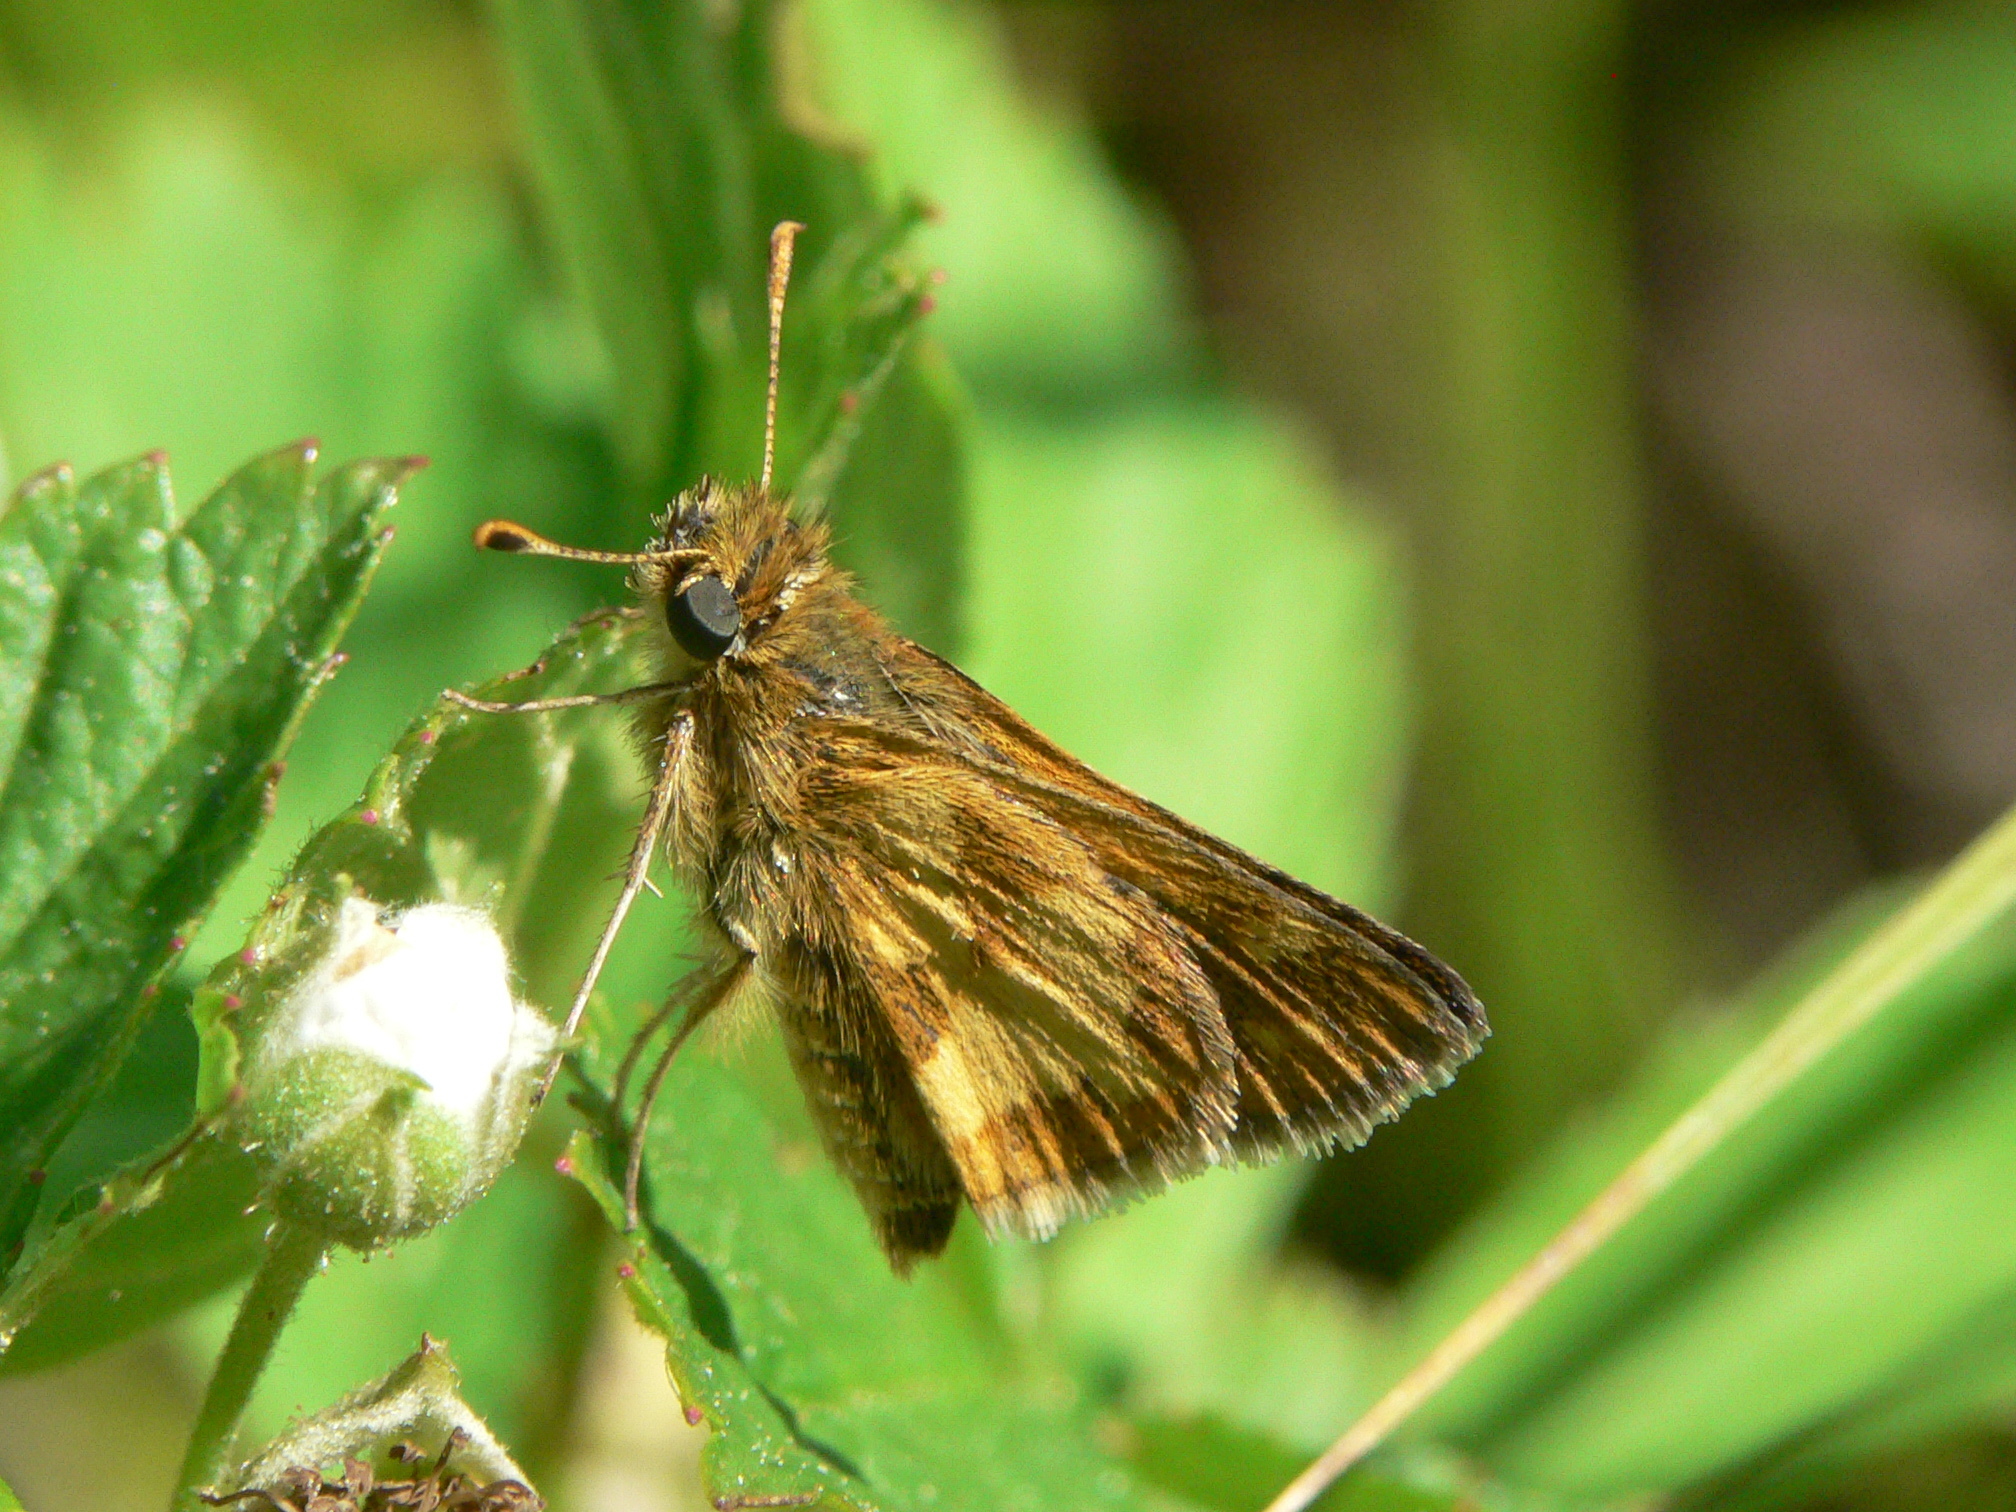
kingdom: Animalia
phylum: Arthropoda
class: Insecta
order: Lepidoptera
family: Hesperiidae
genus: Polites
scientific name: Polites coras
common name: Peck's skipper
